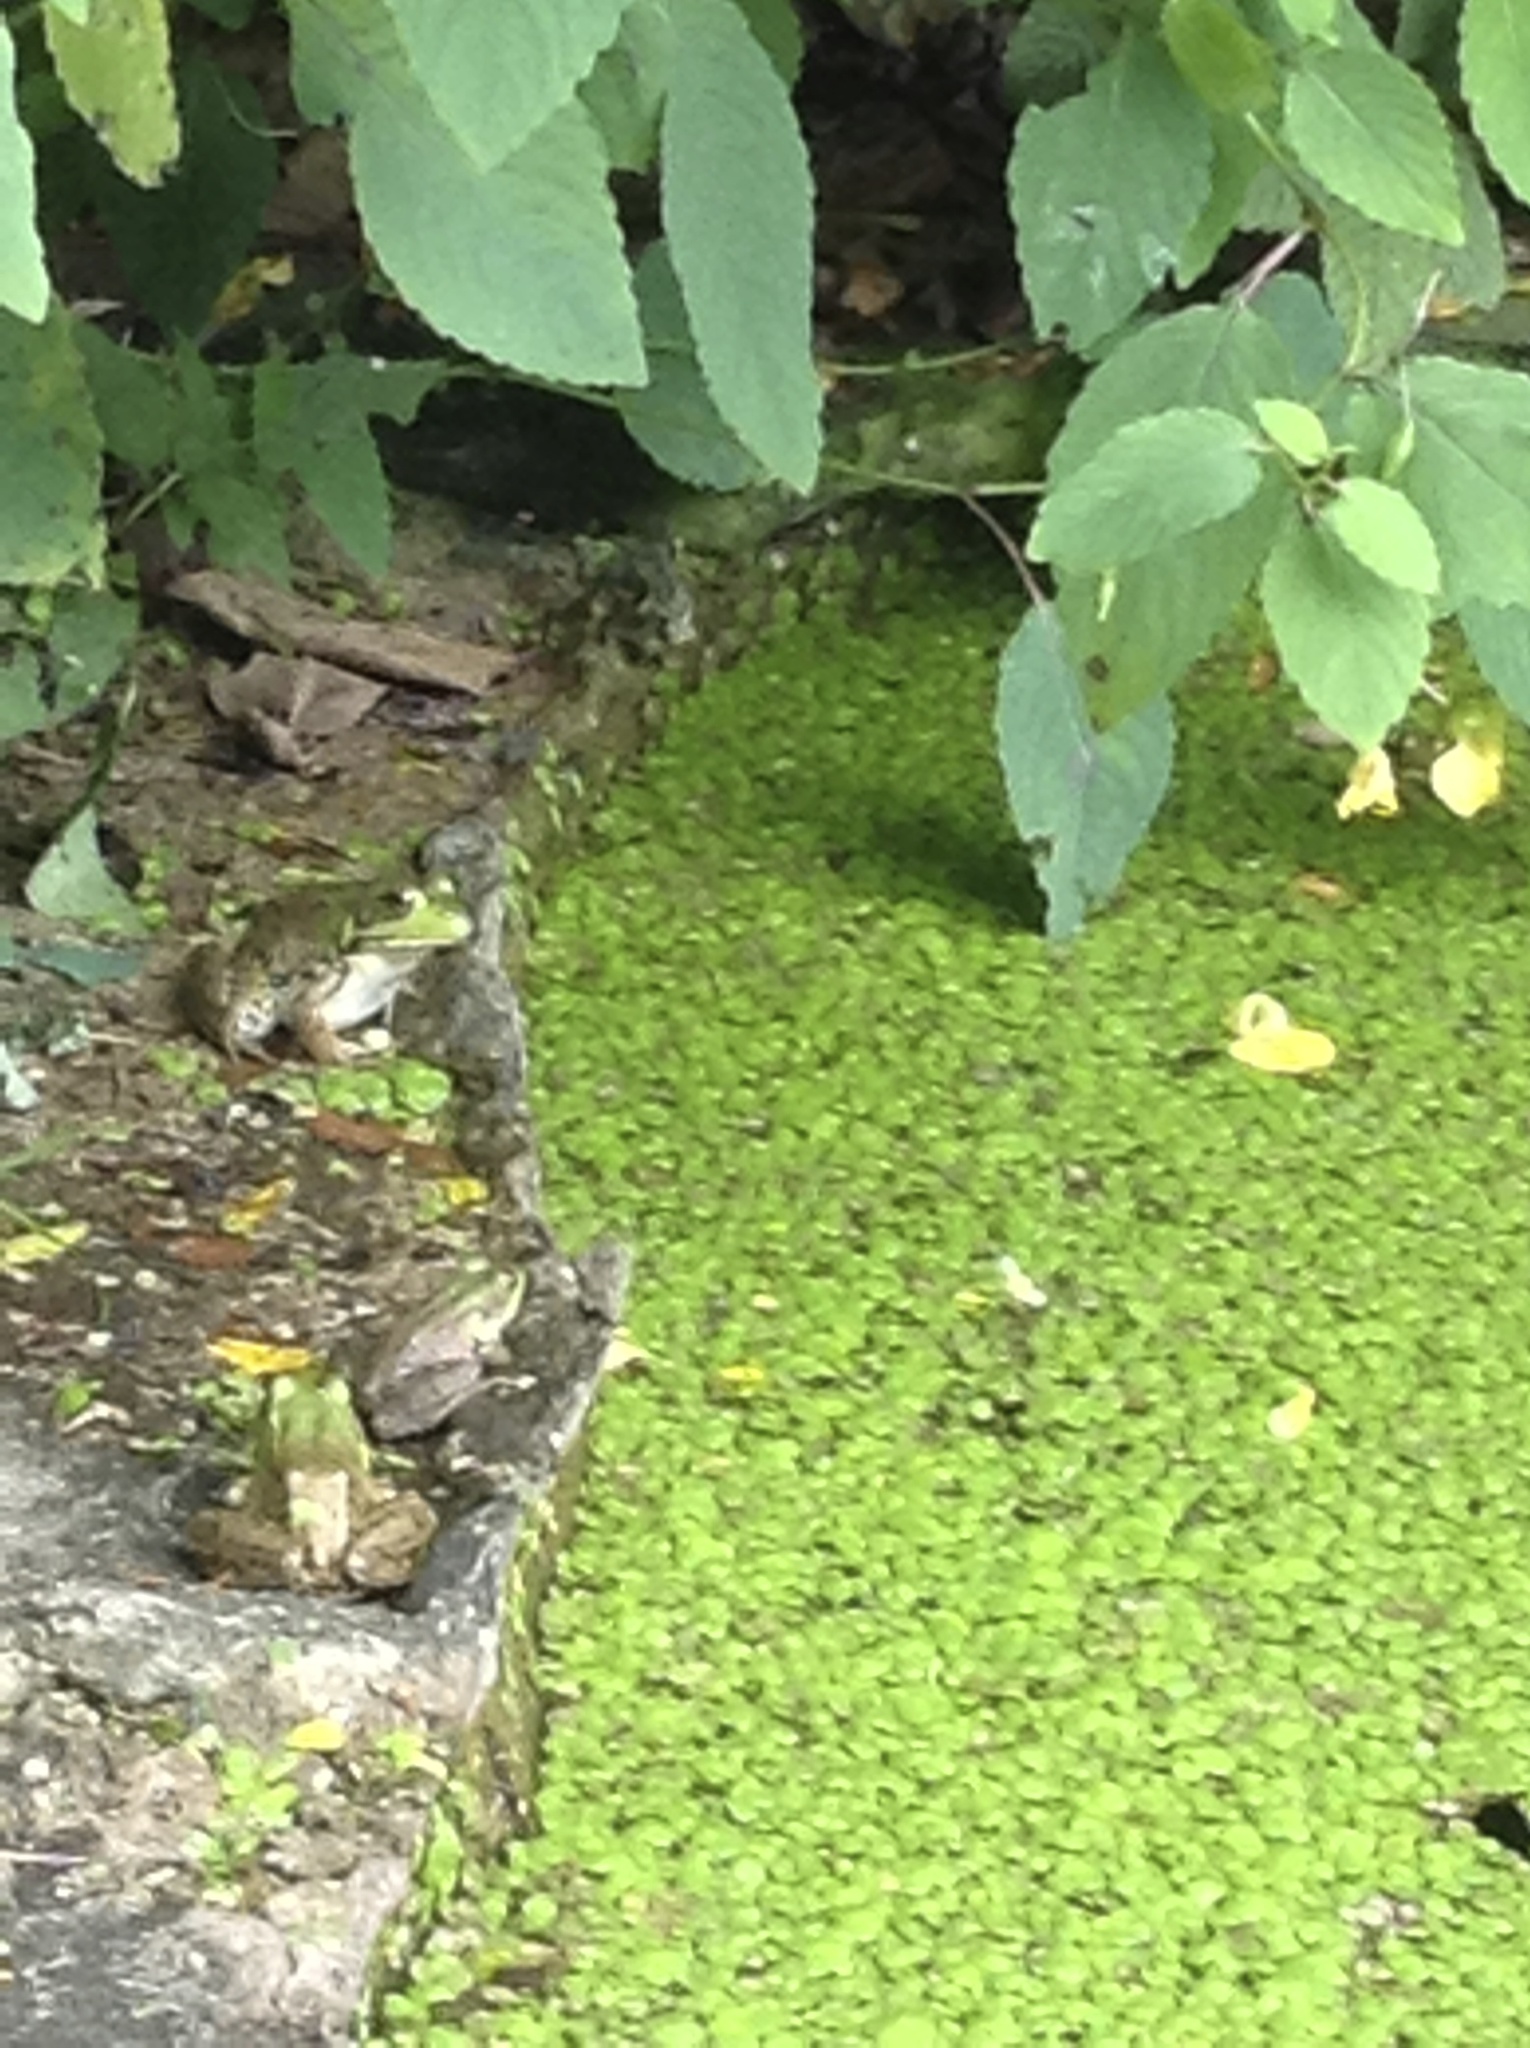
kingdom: Animalia
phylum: Chordata
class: Amphibia
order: Anura
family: Ranidae
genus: Lithobates
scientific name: Lithobates clamitans
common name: Green frog
